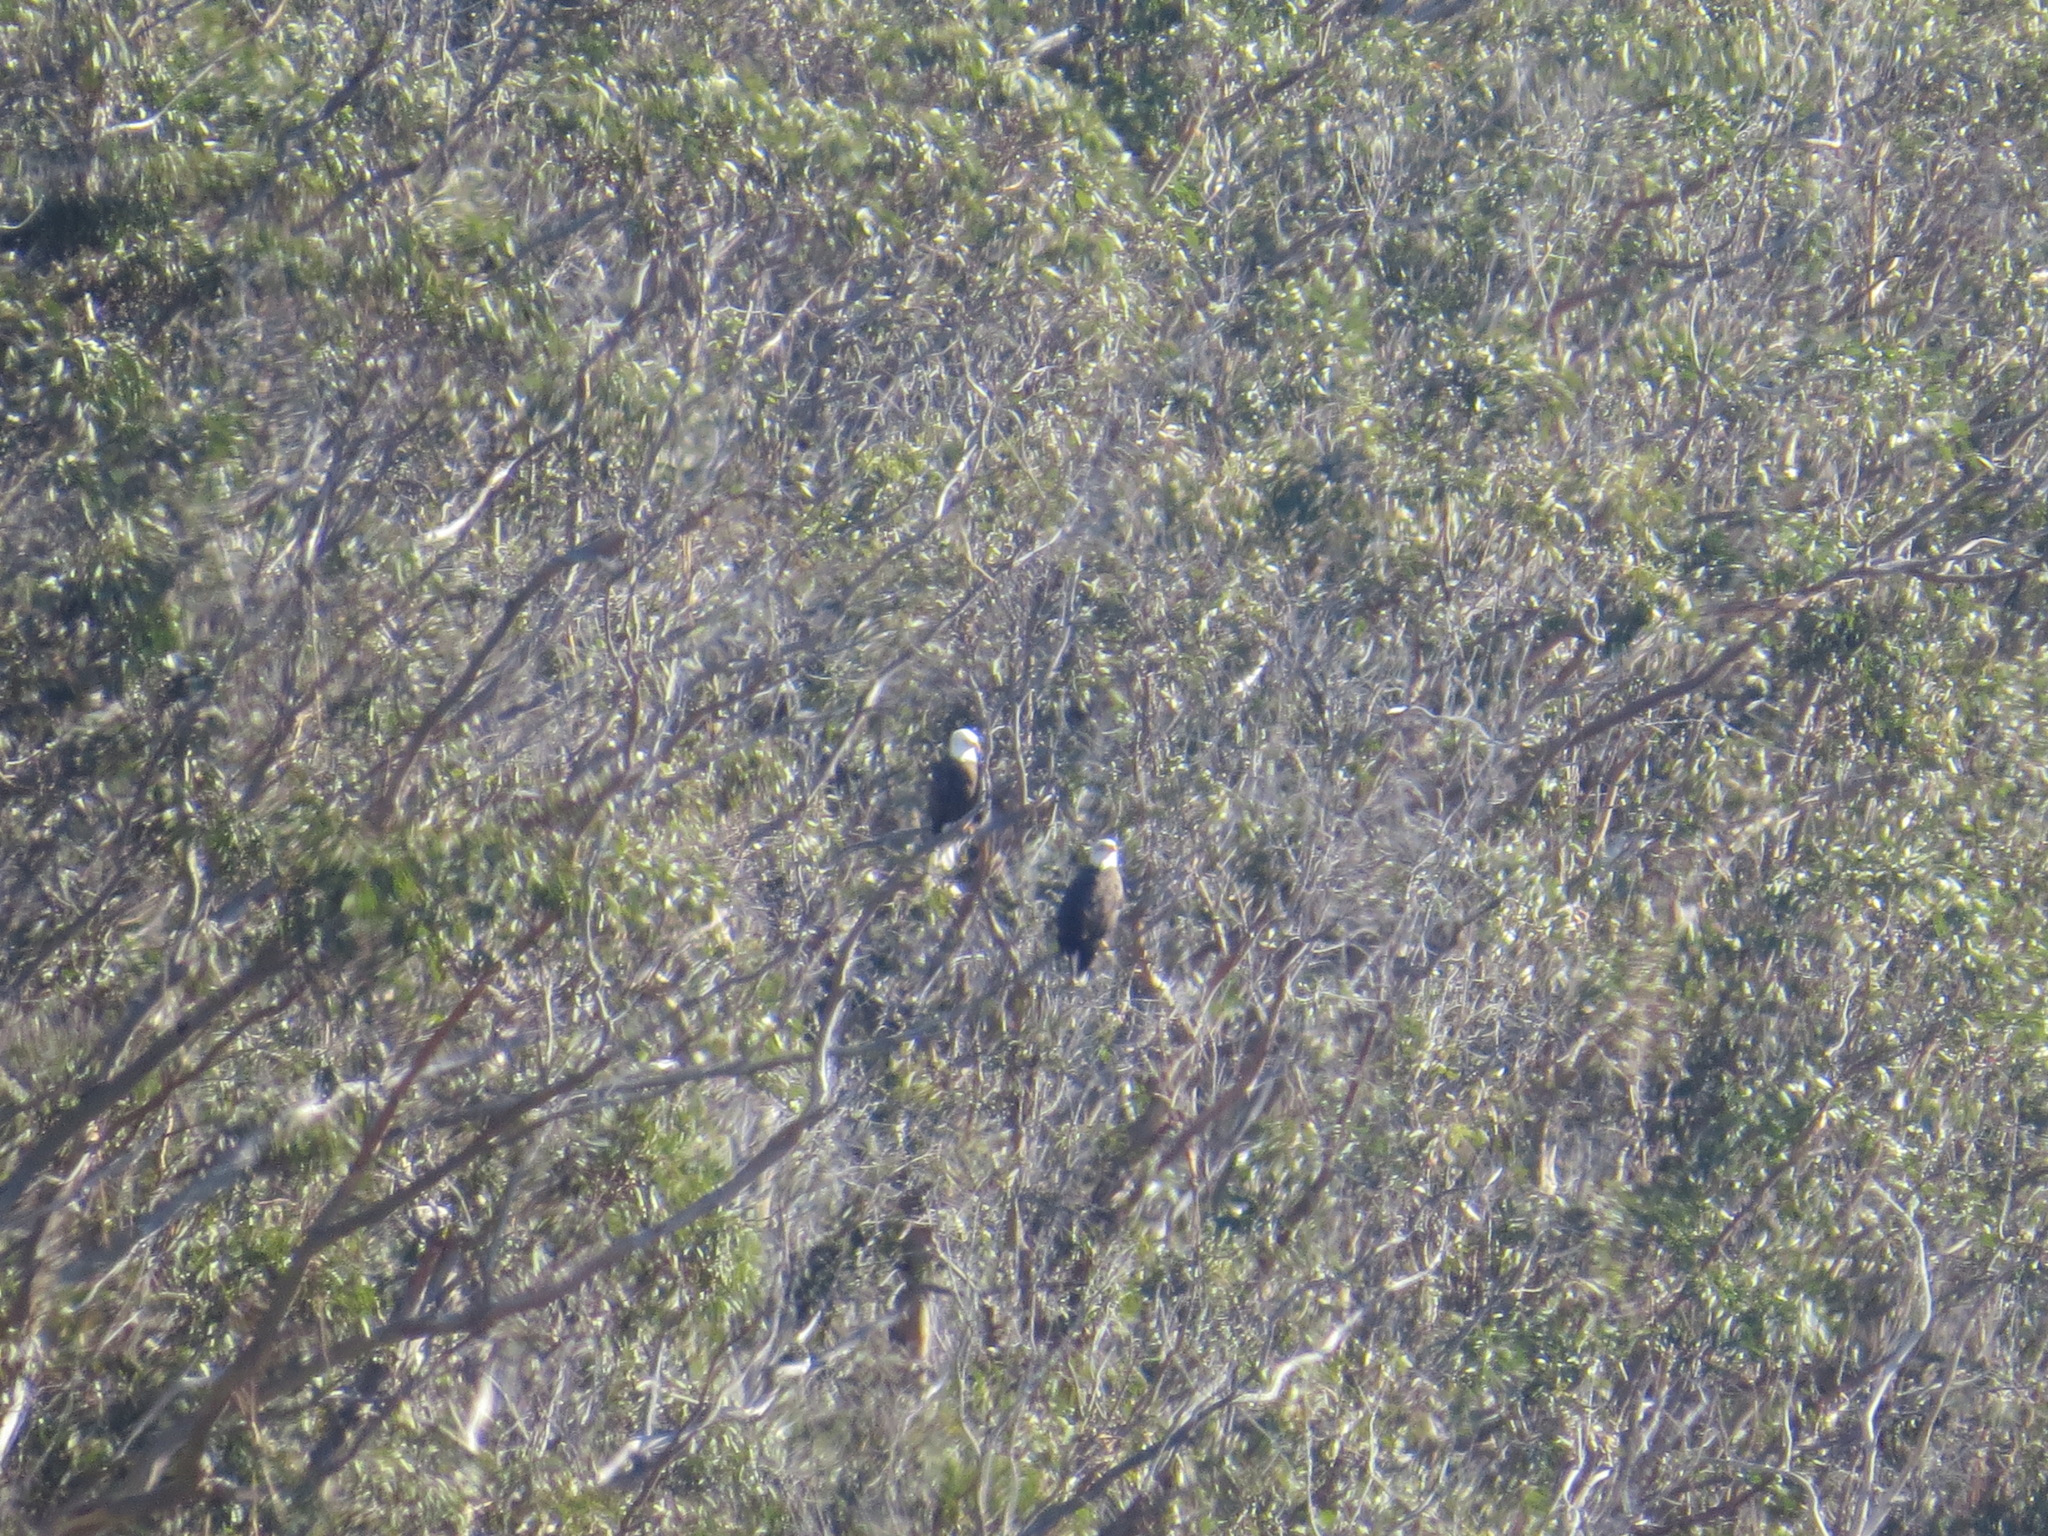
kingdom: Animalia
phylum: Chordata
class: Aves
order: Accipitriformes
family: Accipitridae
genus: Haliaeetus
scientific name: Haliaeetus leucocephalus
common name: Bald eagle
